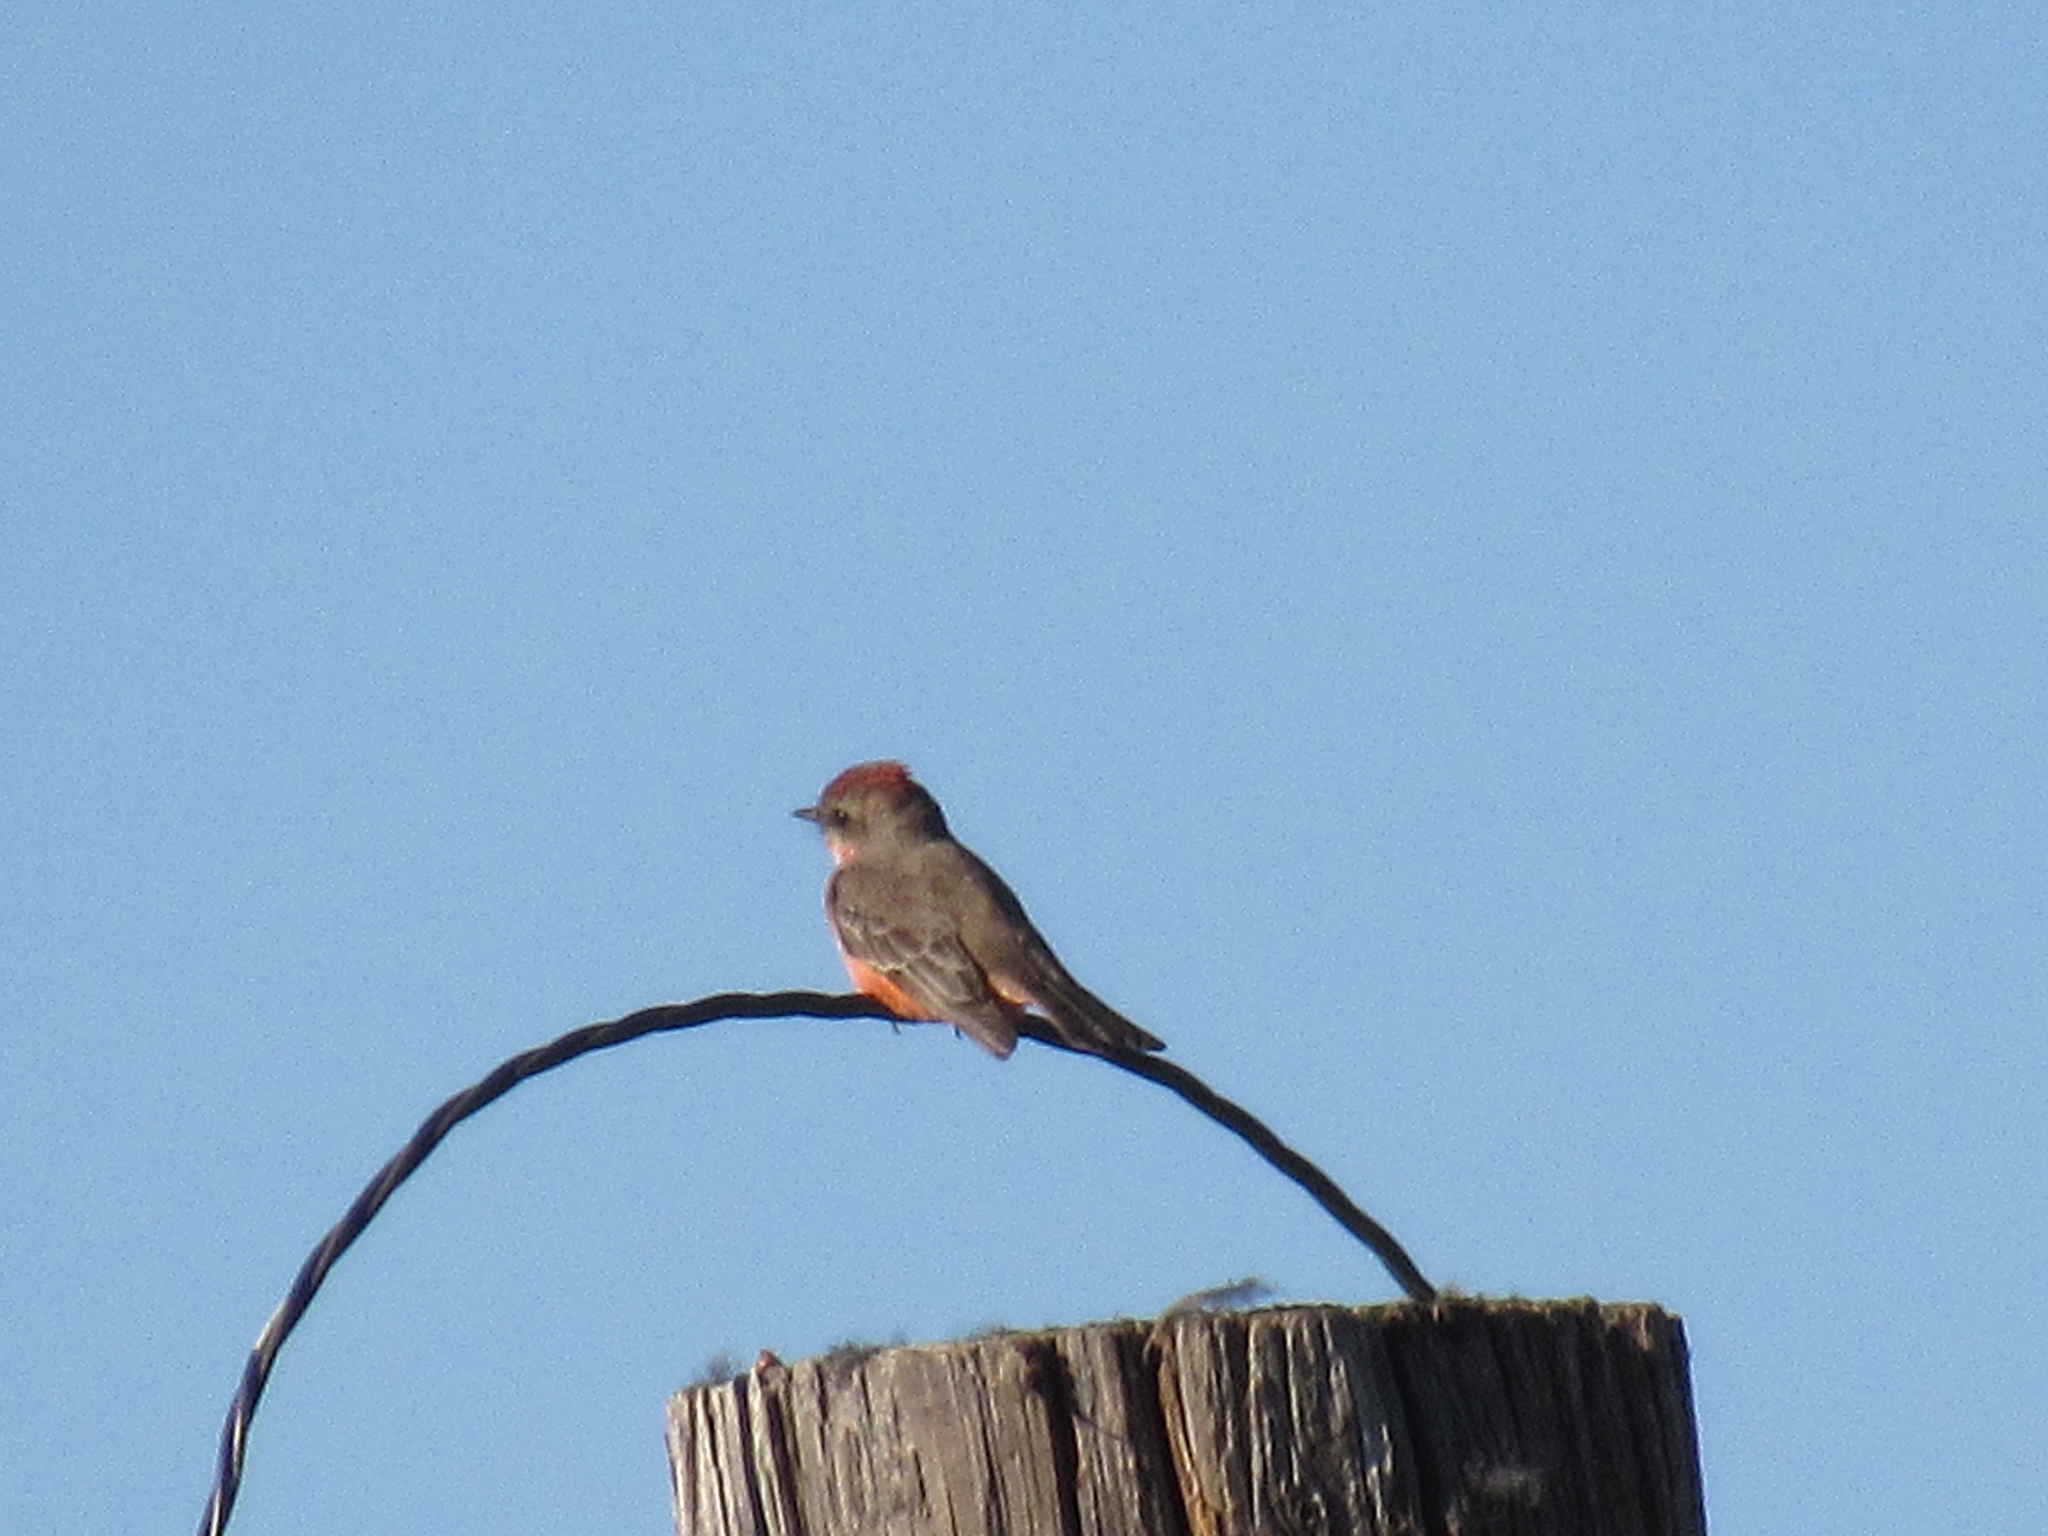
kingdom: Animalia
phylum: Chordata
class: Aves
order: Passeriformes
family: Tyrannidae
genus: Pyrocephalus
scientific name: Pyrocephalus rubinus
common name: Vermilion flycatcher
